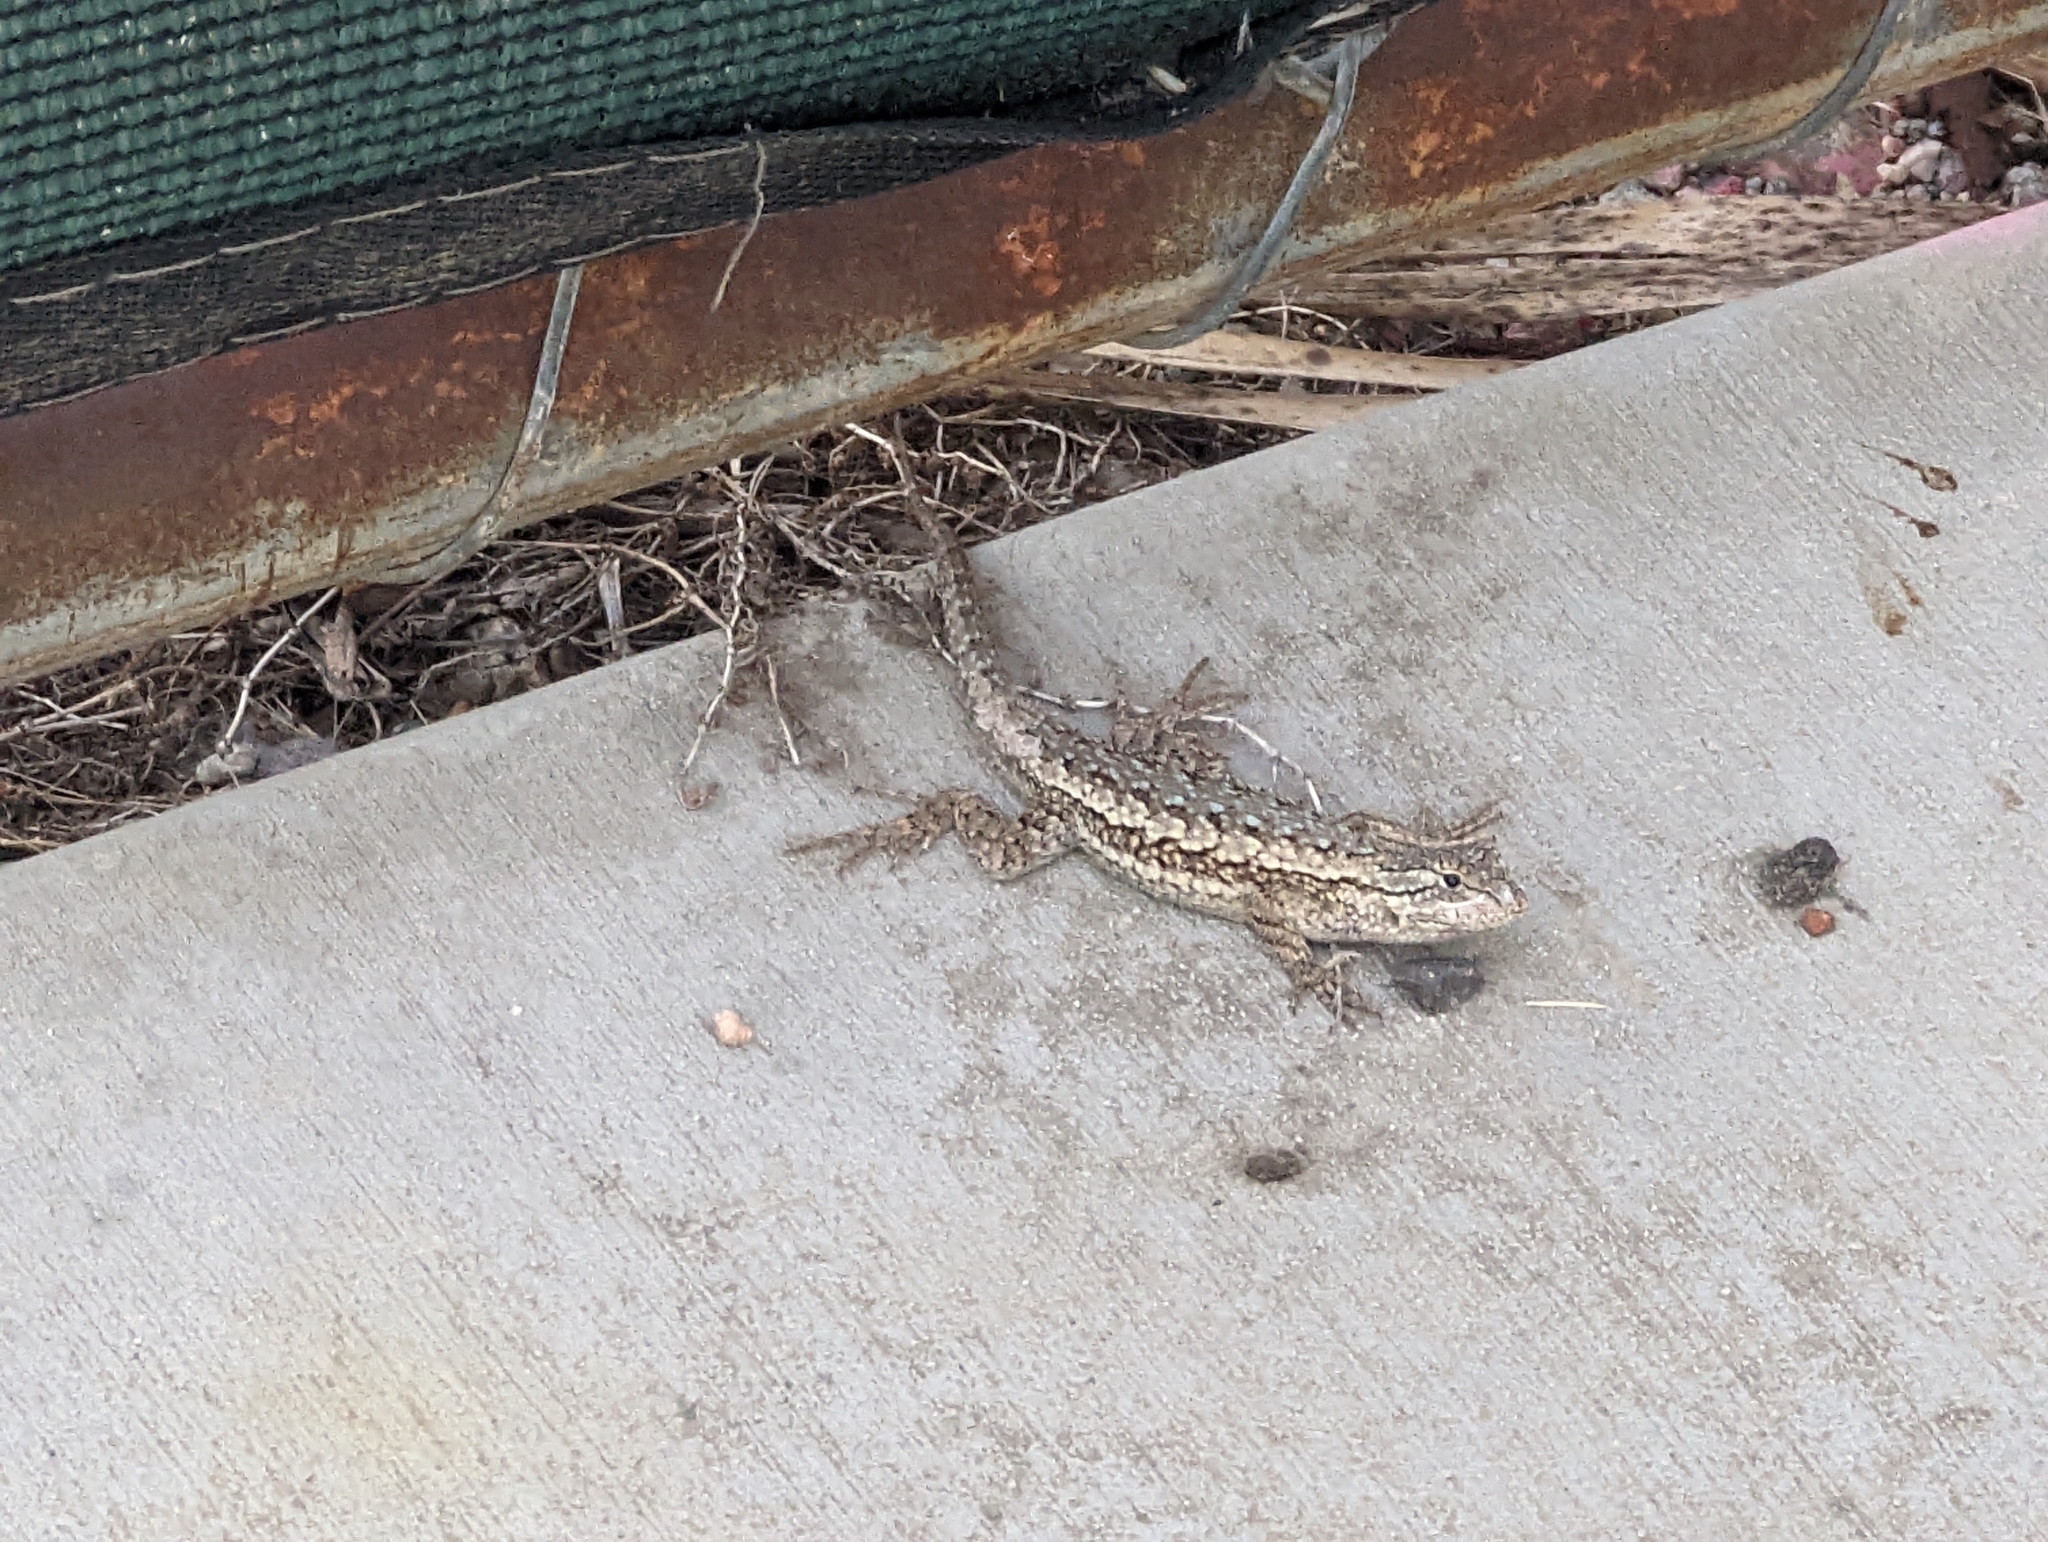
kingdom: Animalia
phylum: Chordata
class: Squamata
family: Phrynosomatidae
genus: Sceloporus
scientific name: Sceloporus occidentalis
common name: Western fence lizard
